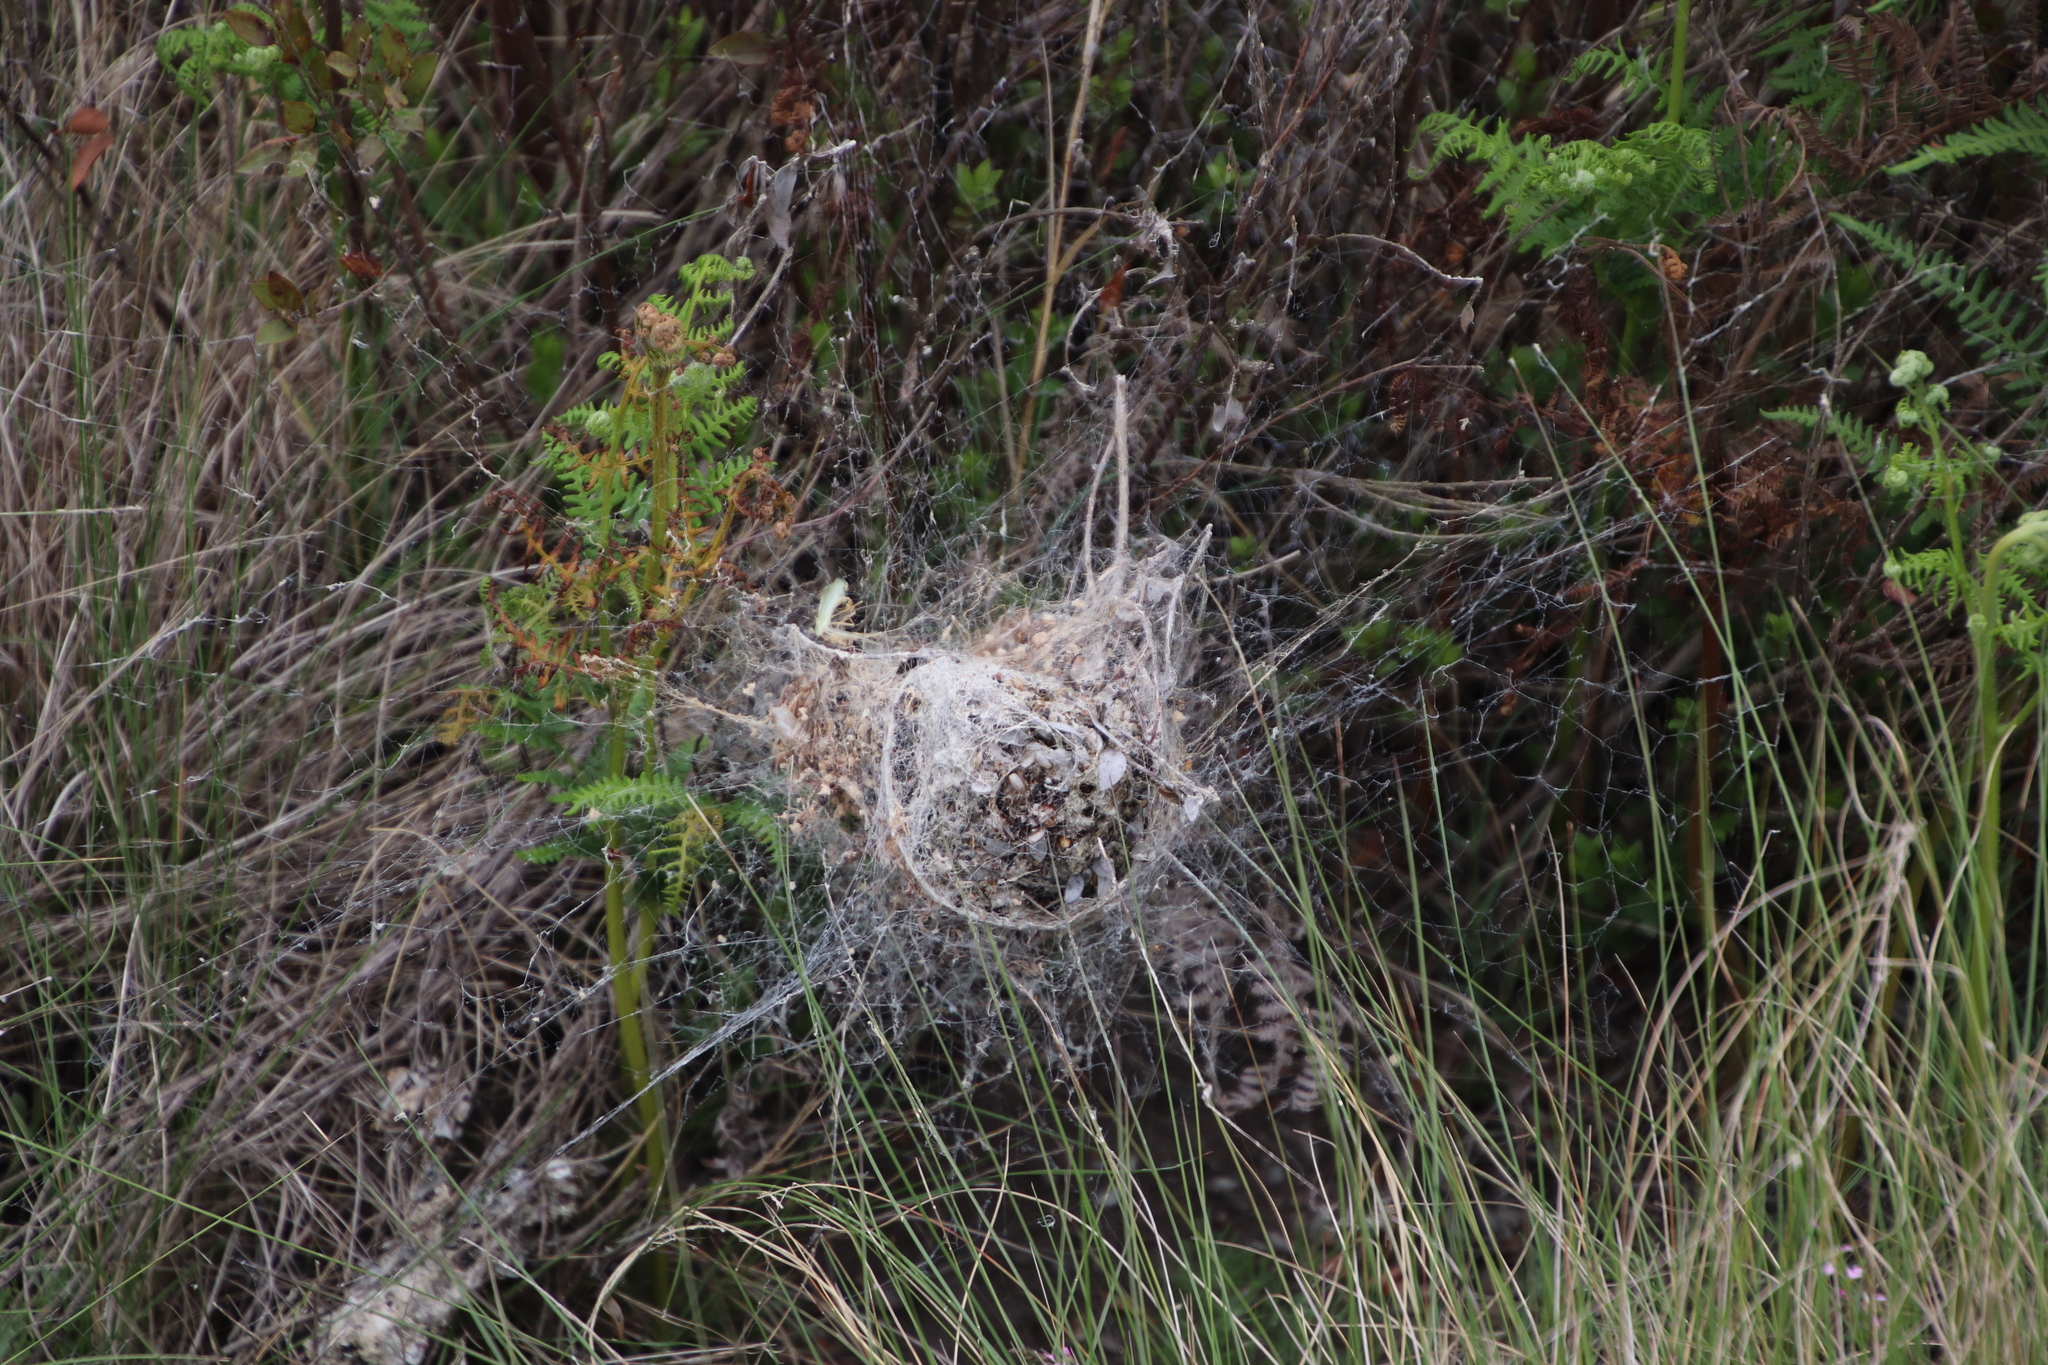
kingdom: Animalia
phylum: Arthropoda
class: Arachnida
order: Araneae
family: Eresidae
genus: Stegodyphus
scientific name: Stegodyphus dumicola
